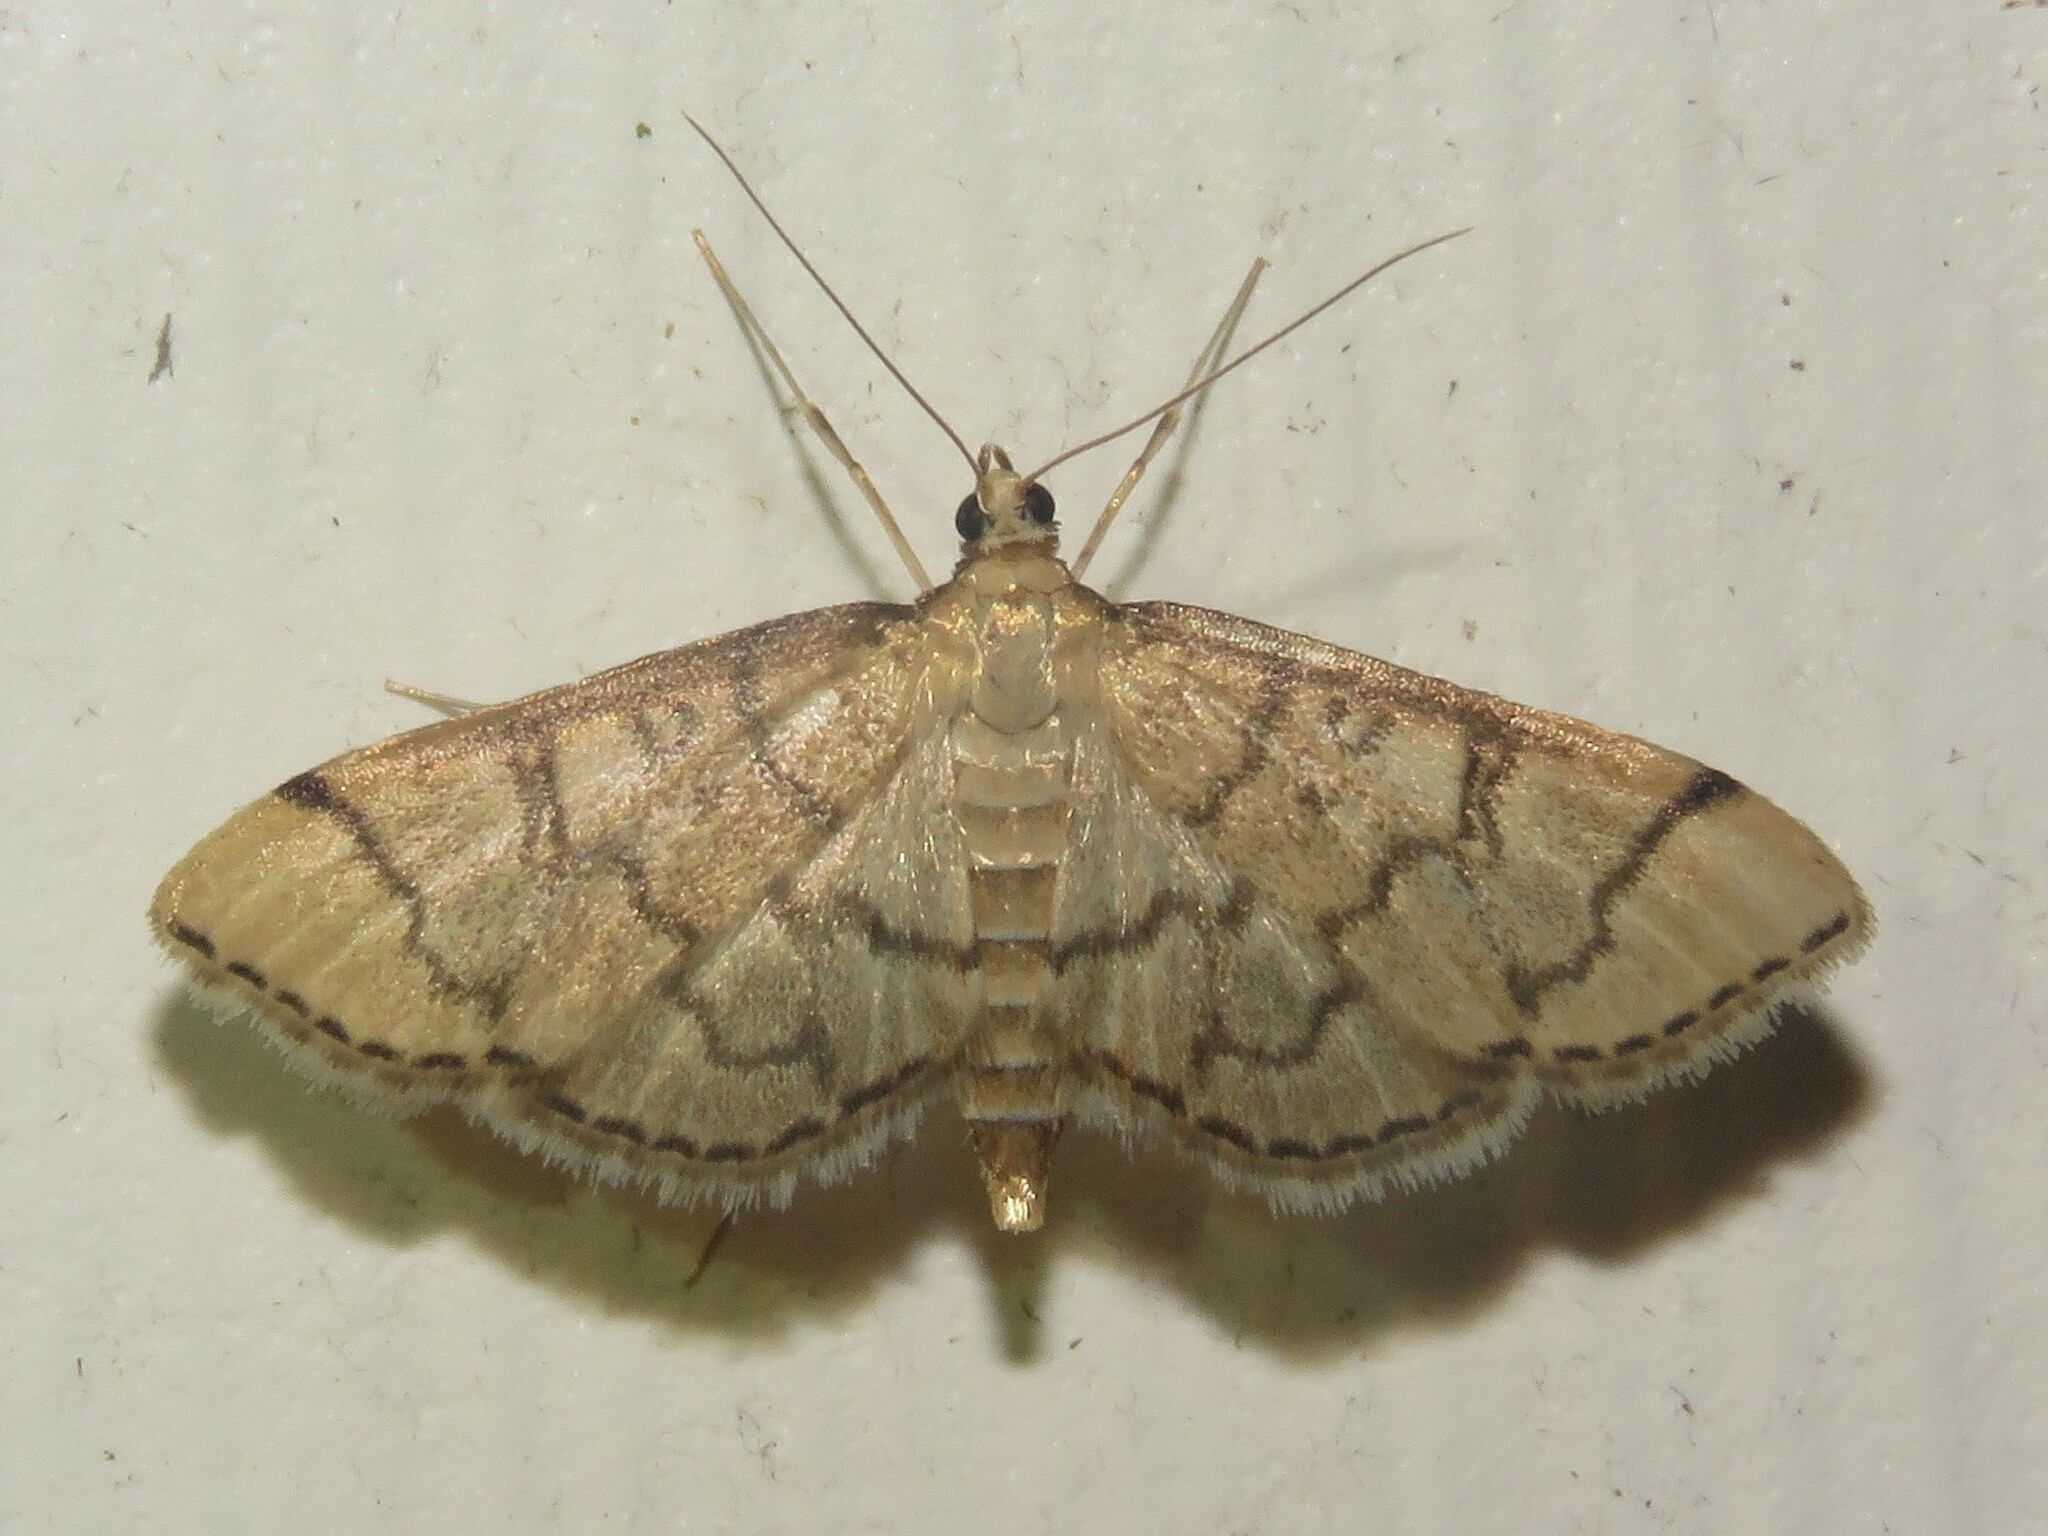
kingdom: Animalia
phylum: Arthropoda
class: Insecta
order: Lepidoptera
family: Crambidae
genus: Lamprosema
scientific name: Lamprosema Blepharomastix ranalis
